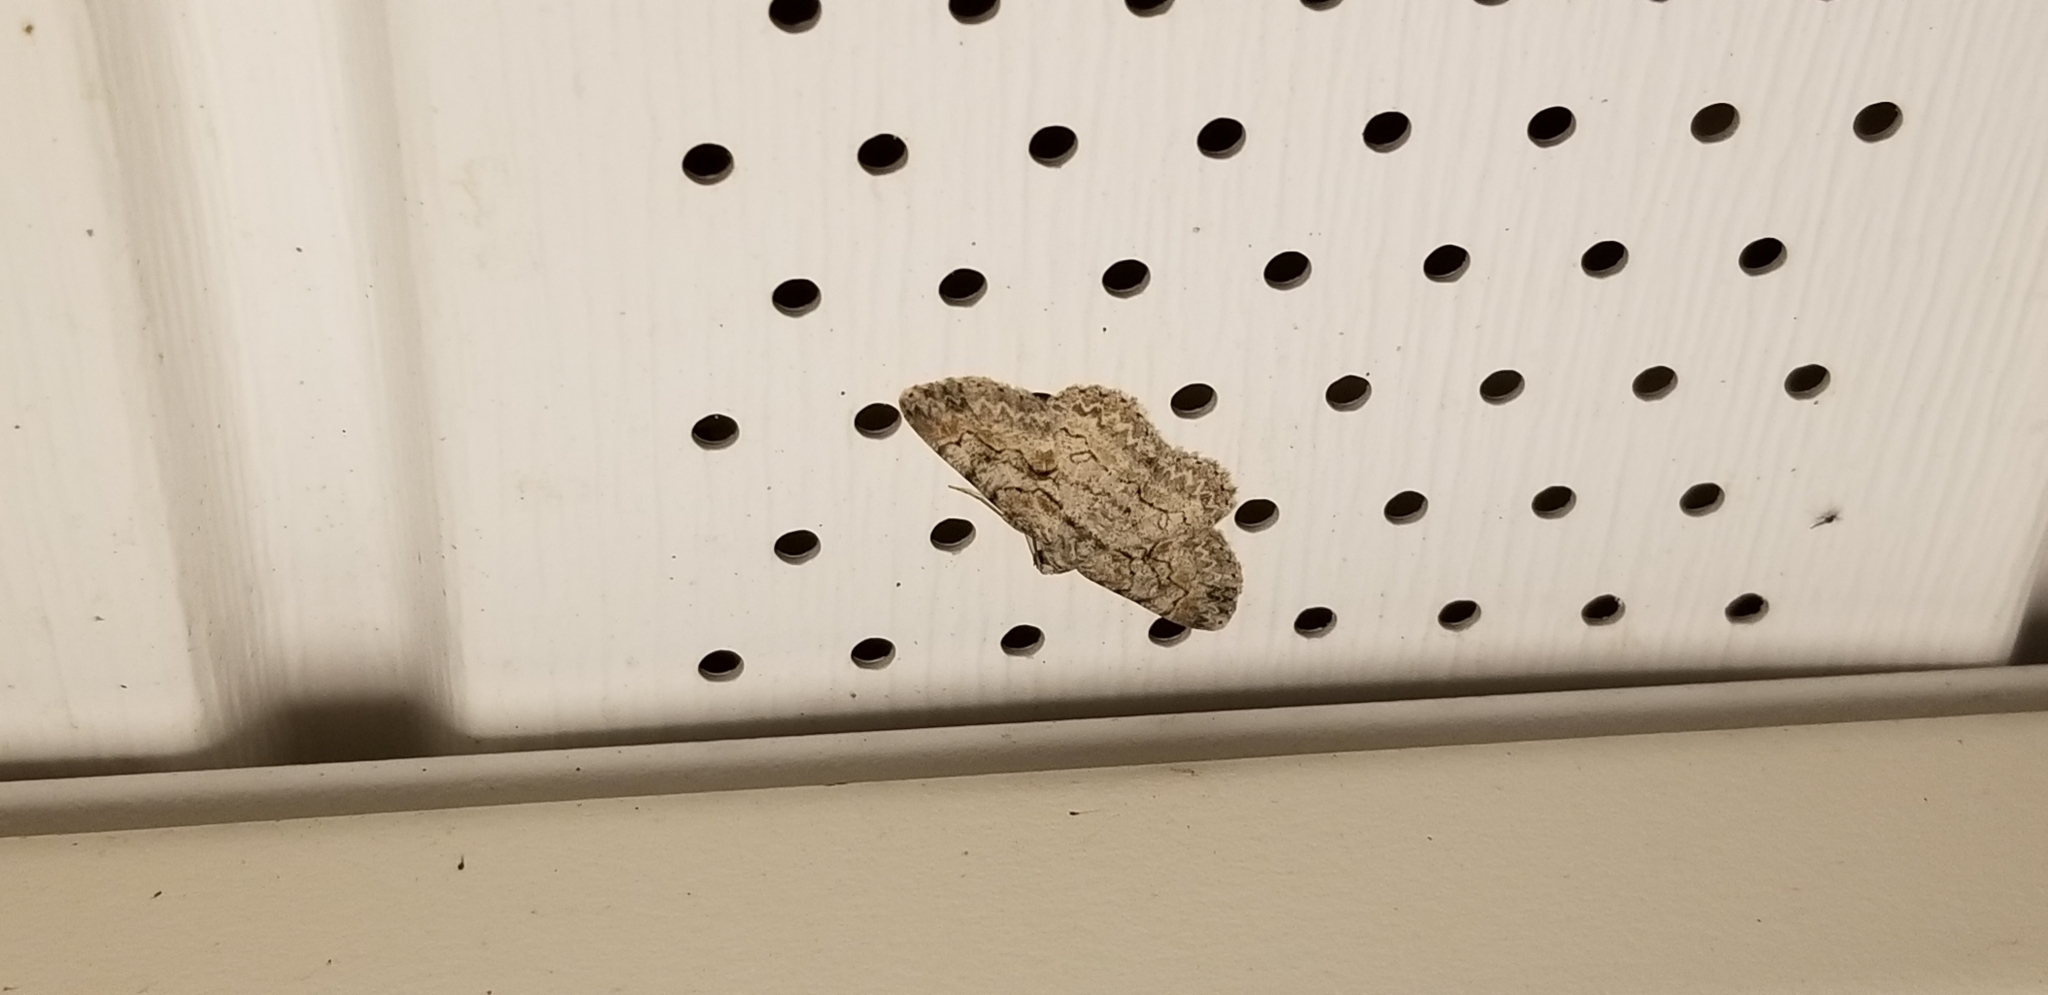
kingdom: Animalia
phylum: Arthropoda
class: Insecta
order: Lepidoptera
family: Geometridae
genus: Iridopsis
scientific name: Iridopsis defectaria
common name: Brown-shaded gray
